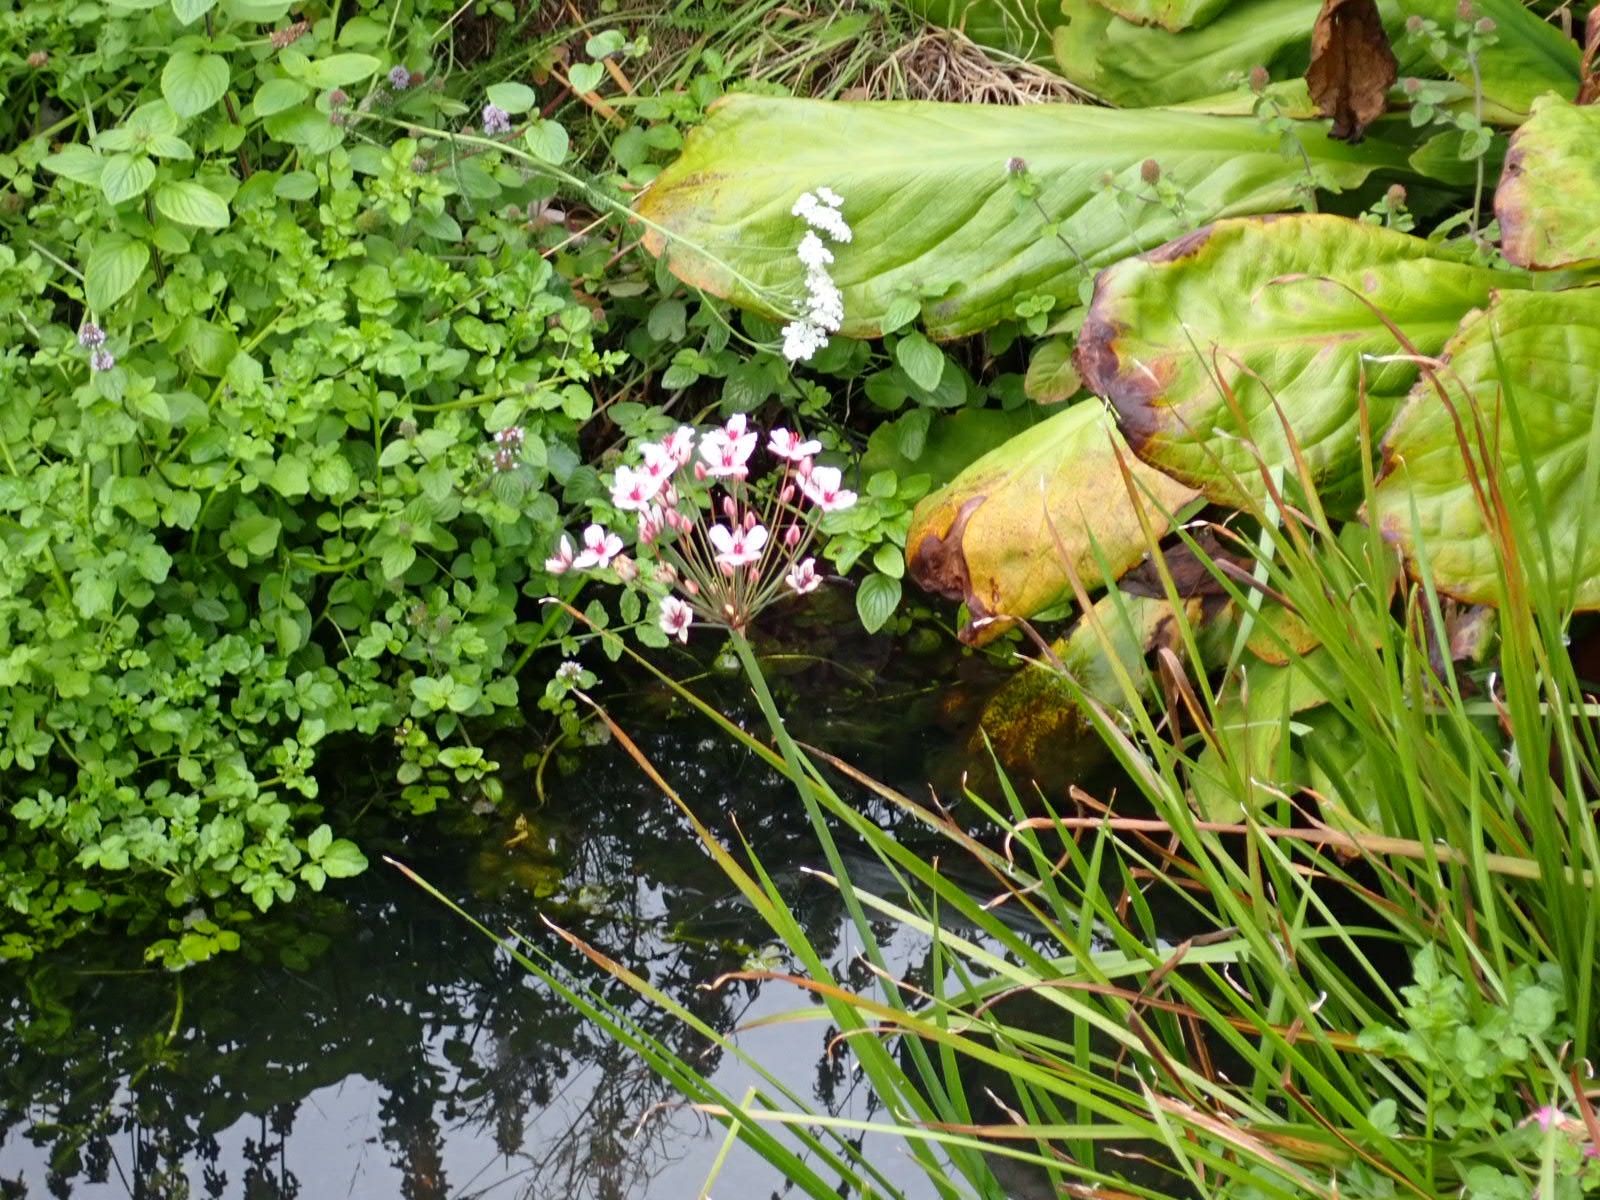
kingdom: Plantae
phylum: Tracheophyta
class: Liliopsida
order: Alismatales
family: Butomaceae
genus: Butomus
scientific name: Butomus umbellatus
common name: Flowering-rush
